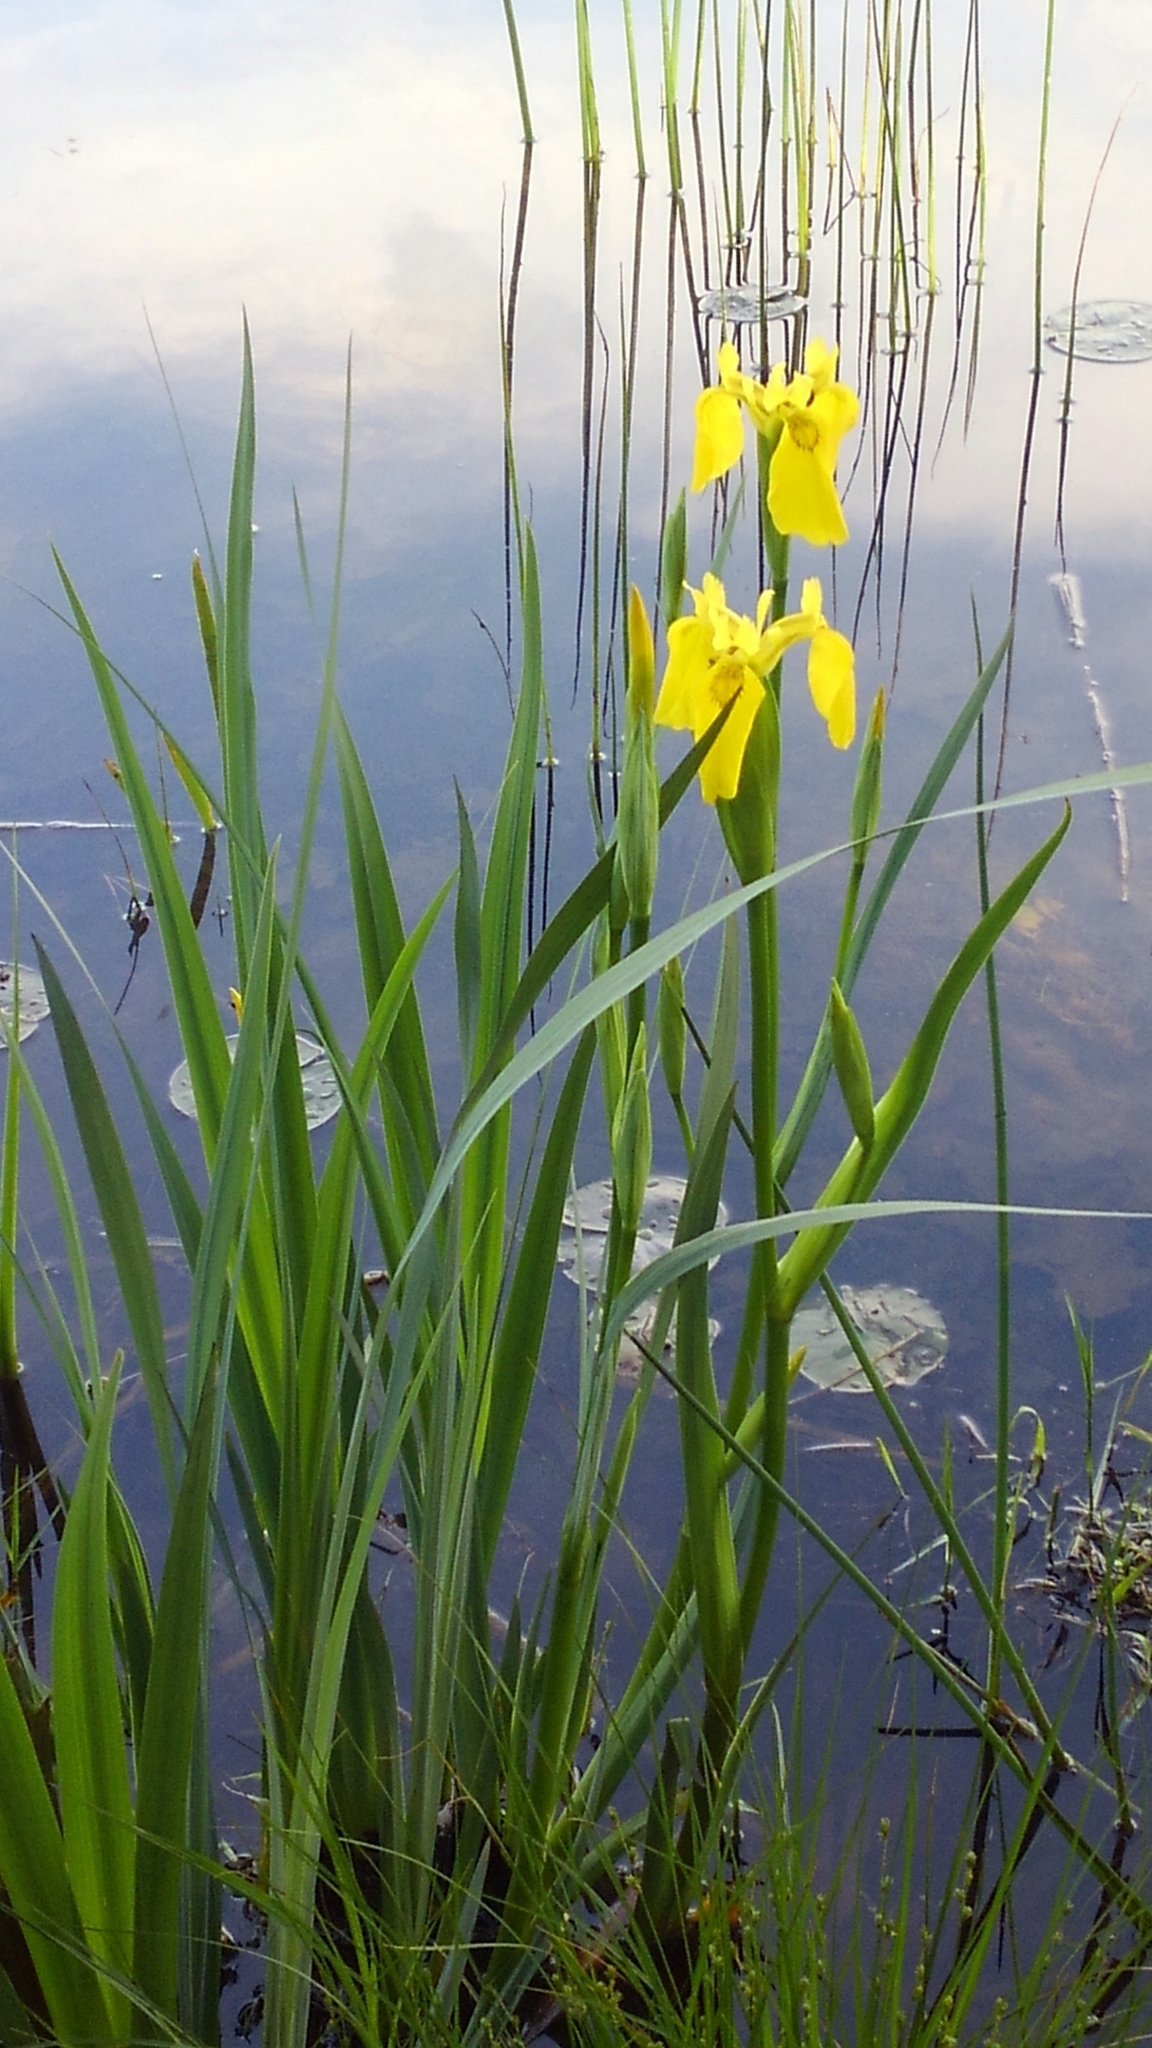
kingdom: Plantae
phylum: Tracheophyta
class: Liliopsida
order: Asparagales
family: Iridaceae
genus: Iris
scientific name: Iris pseudacorus
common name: Yellow flag
